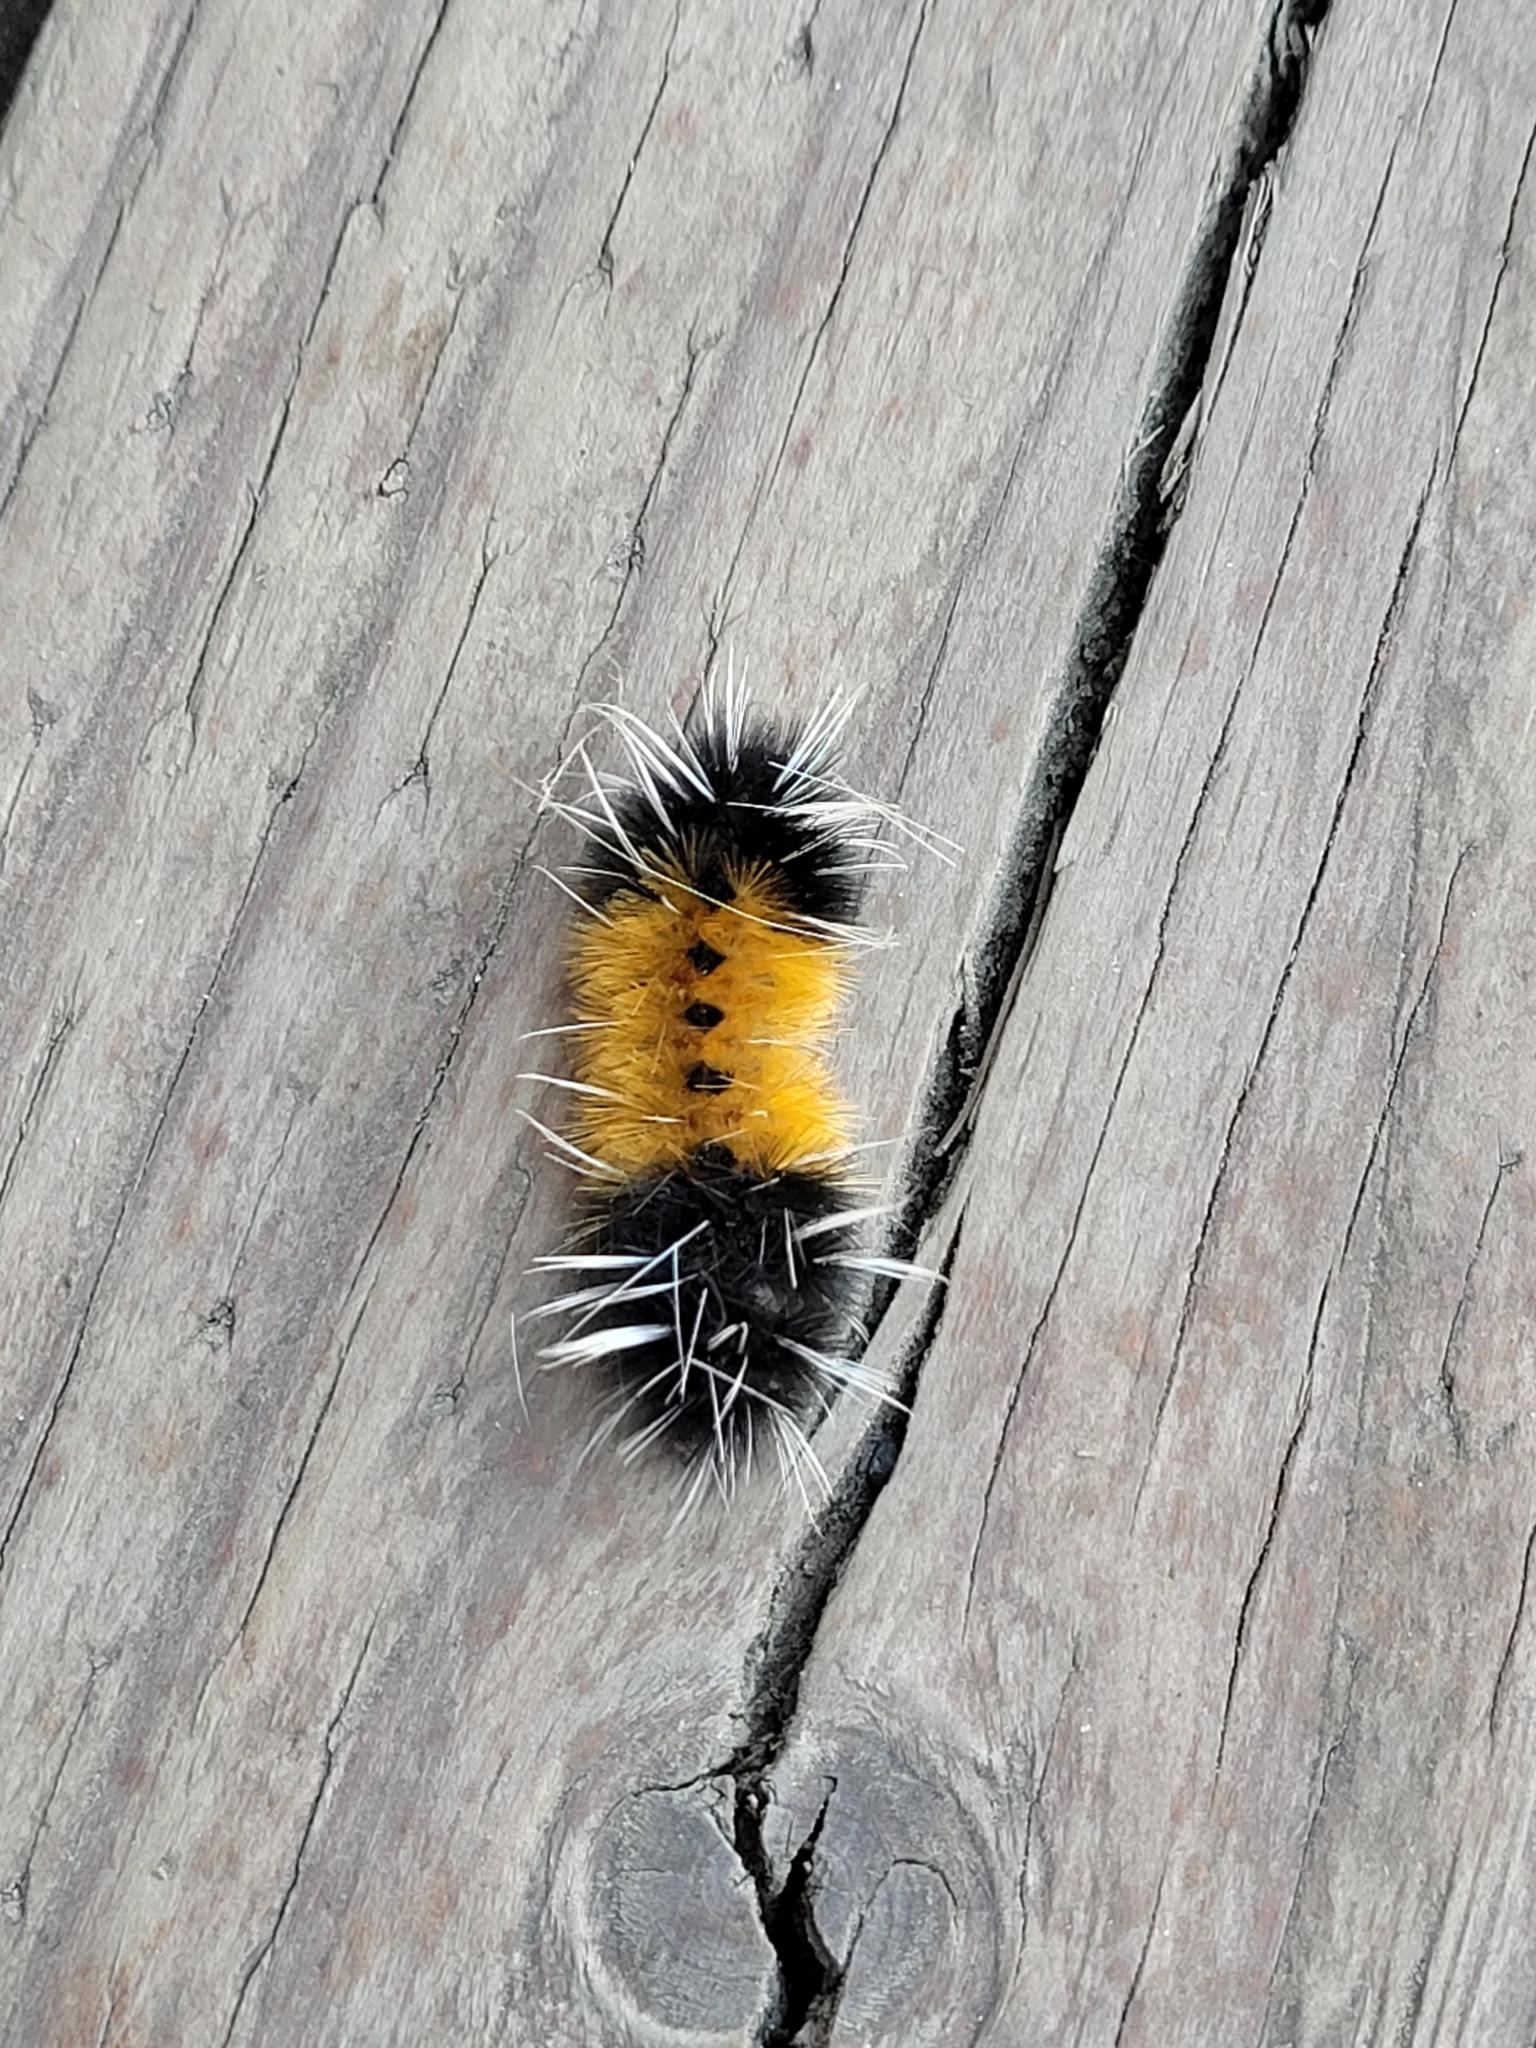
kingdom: Animalia
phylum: Arthropoda
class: Insecta
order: Lepidoptera
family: Erebidae
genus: Lophocampa
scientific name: Lophocampa maculata
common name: Spotted tussock moth
